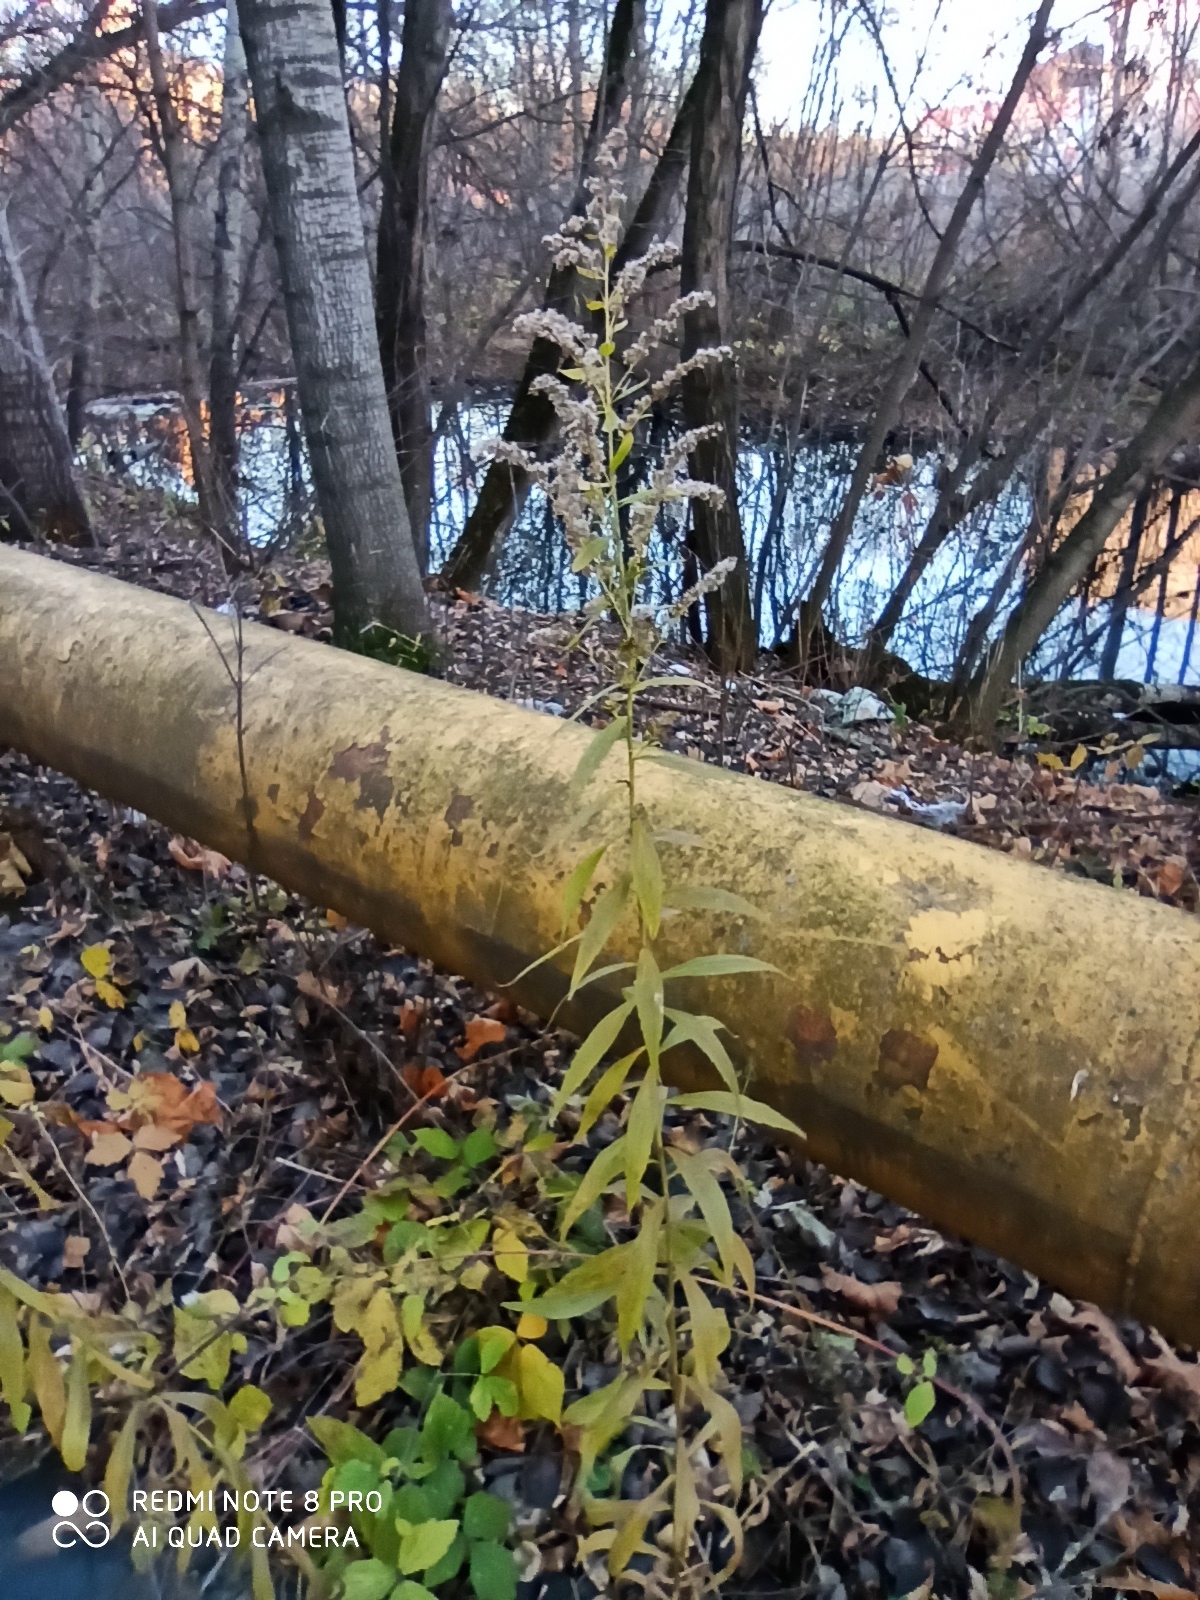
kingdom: Plantae
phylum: Tracheophyta
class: Magnoliopsida
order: Asterales
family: Asteraceae
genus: Solidago
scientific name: Solidago canadensis
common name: Canada goldenrod
